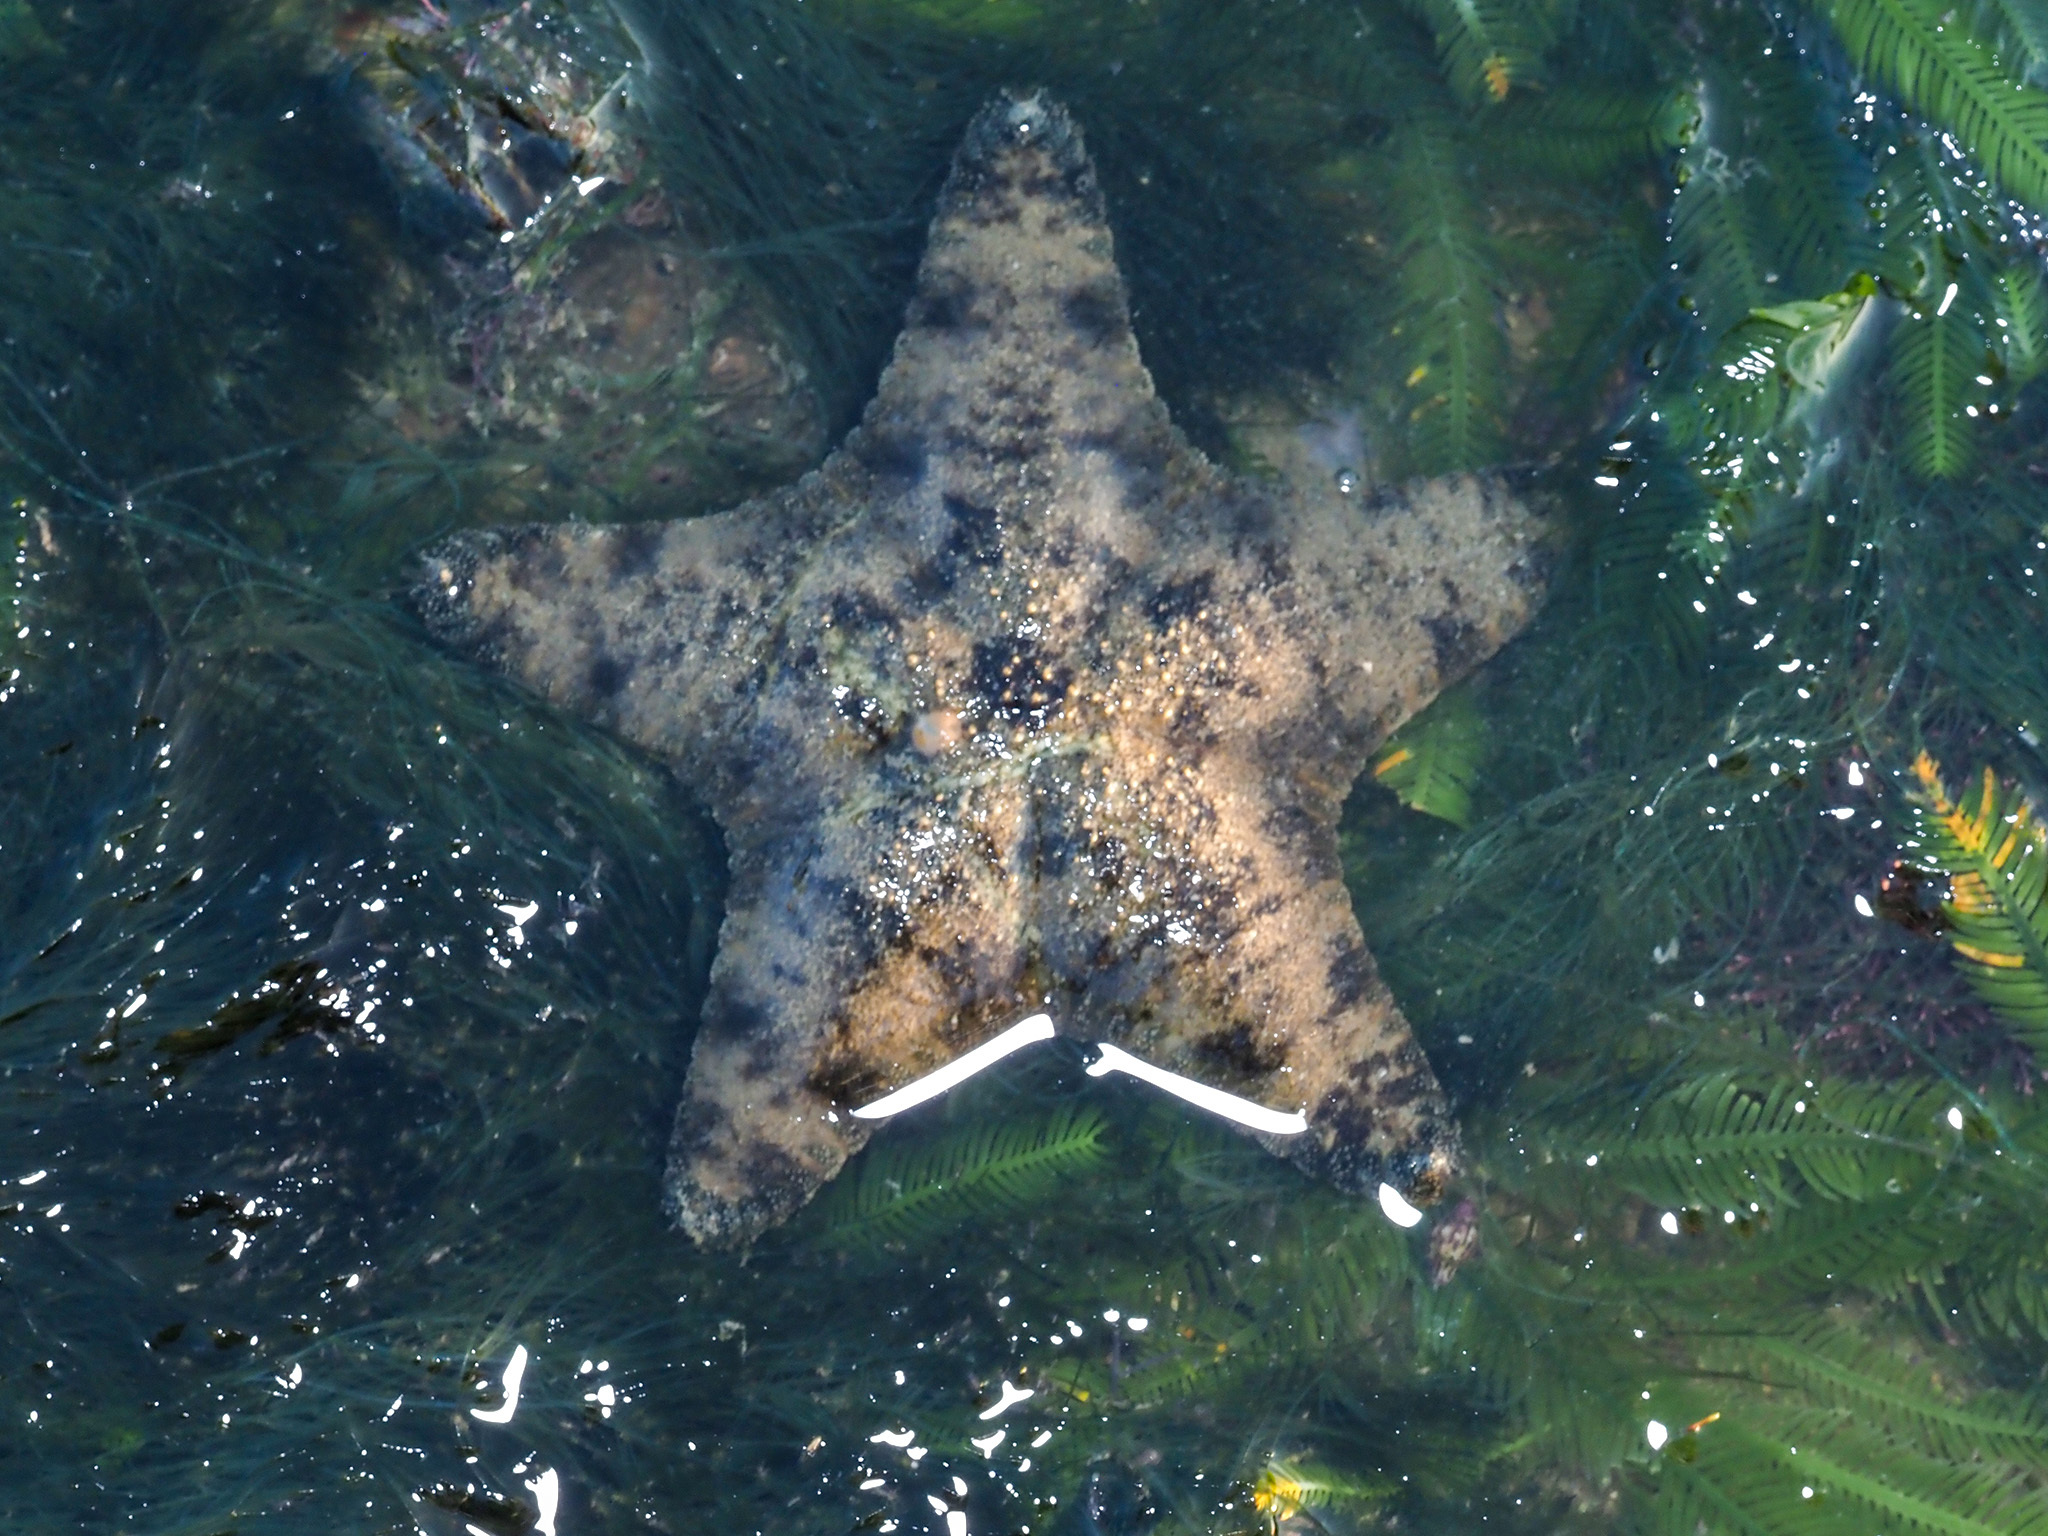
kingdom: Animalia
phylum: Echinodermata
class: Asteroidea
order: Valvatida
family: Oreasteridae
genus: Anthenea
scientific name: Anthenea aspera
